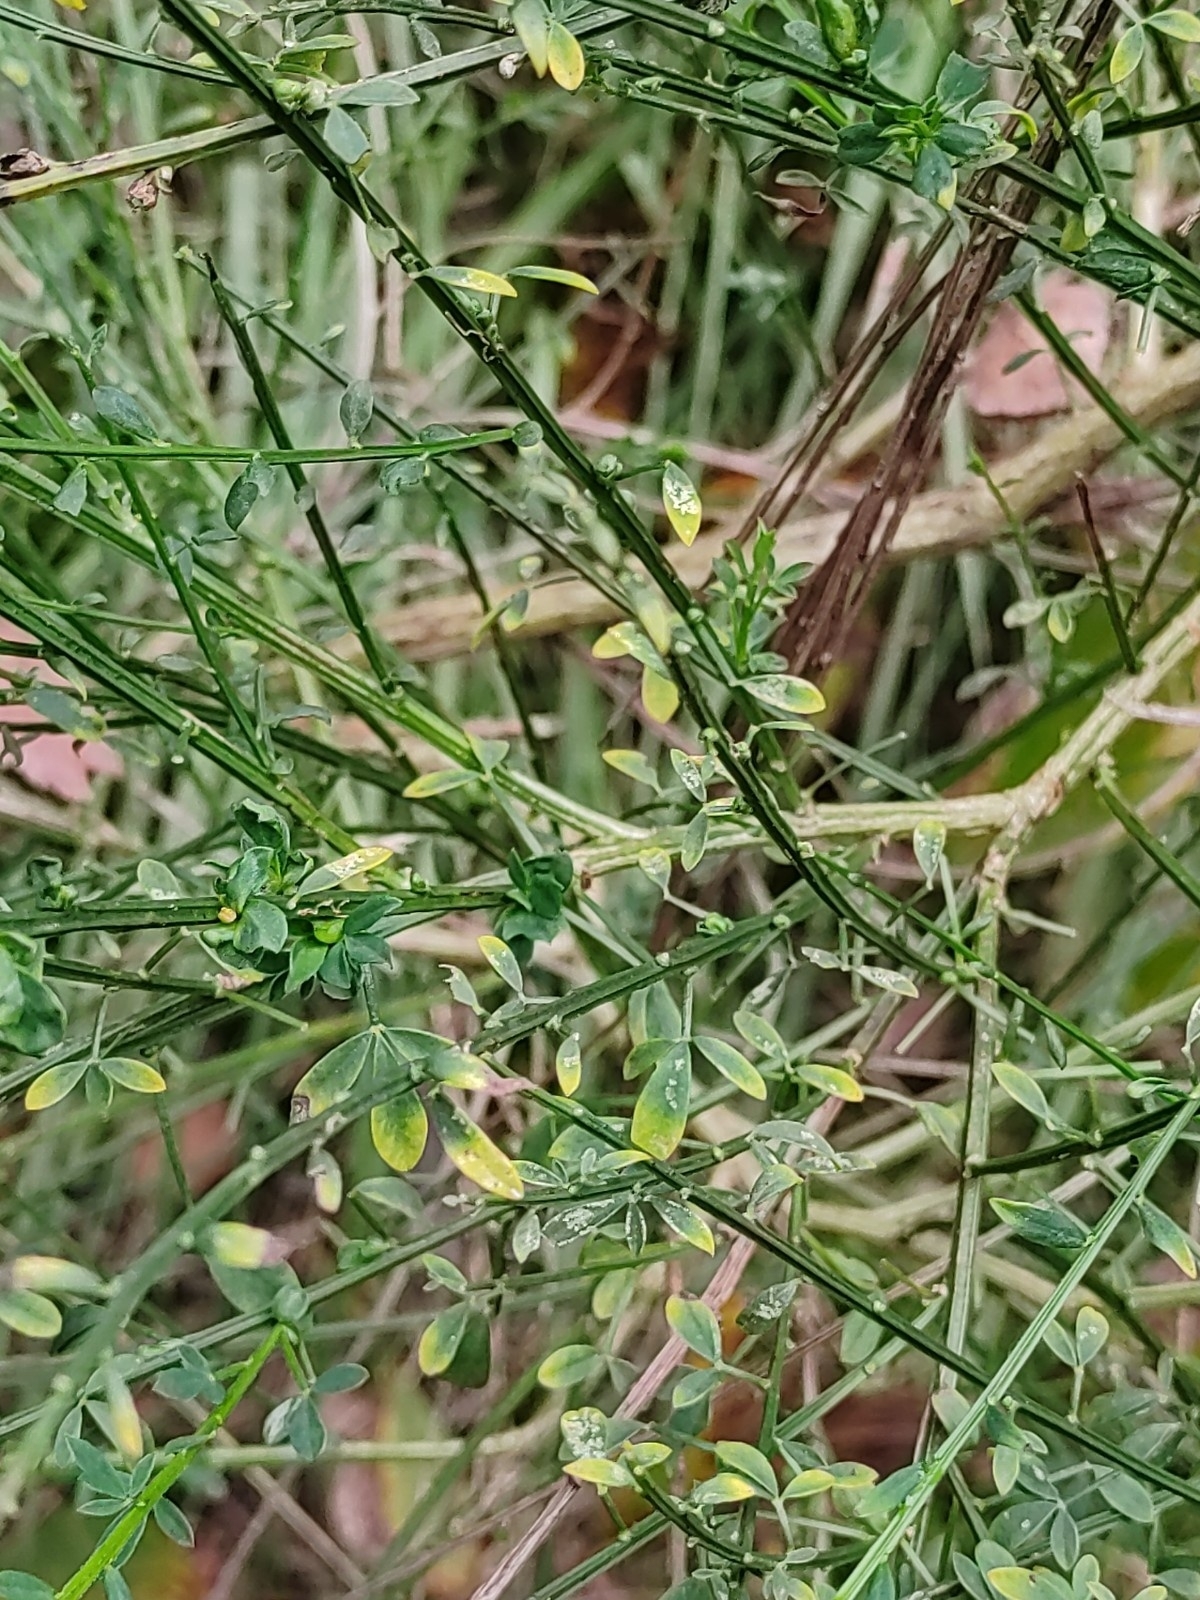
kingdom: Plantae
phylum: Tracheophyta
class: Magnoliopsida
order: Fabales
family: Fabaceae
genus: Cytisus
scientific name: Cytisus scoparius
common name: Scotch broom
